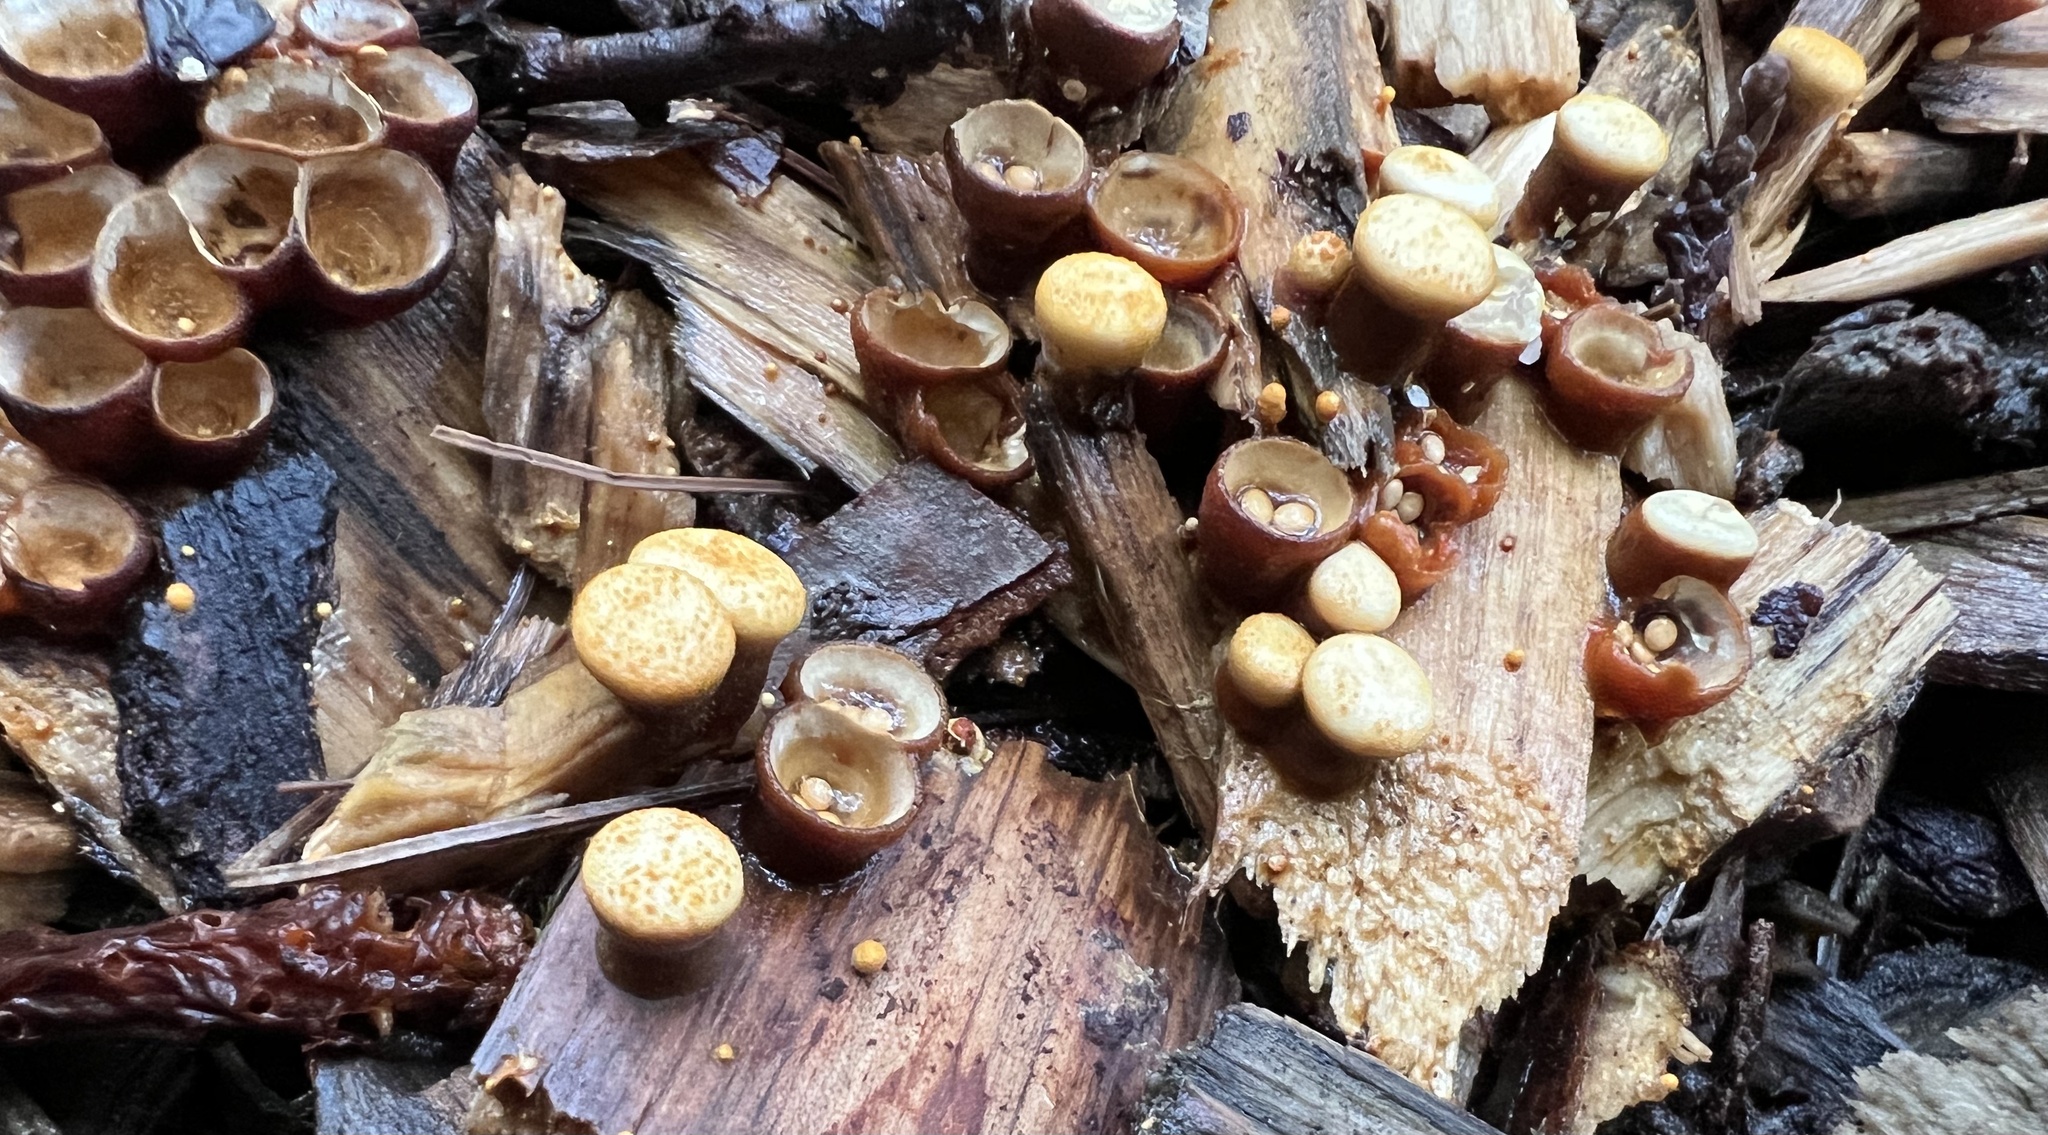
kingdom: Fungi
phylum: Basidiomycota
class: Agaricomycetes
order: Agaricales
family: Nidulariaceae
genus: Crucibulum
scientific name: Crucibulum laeve
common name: Common bird's nest
